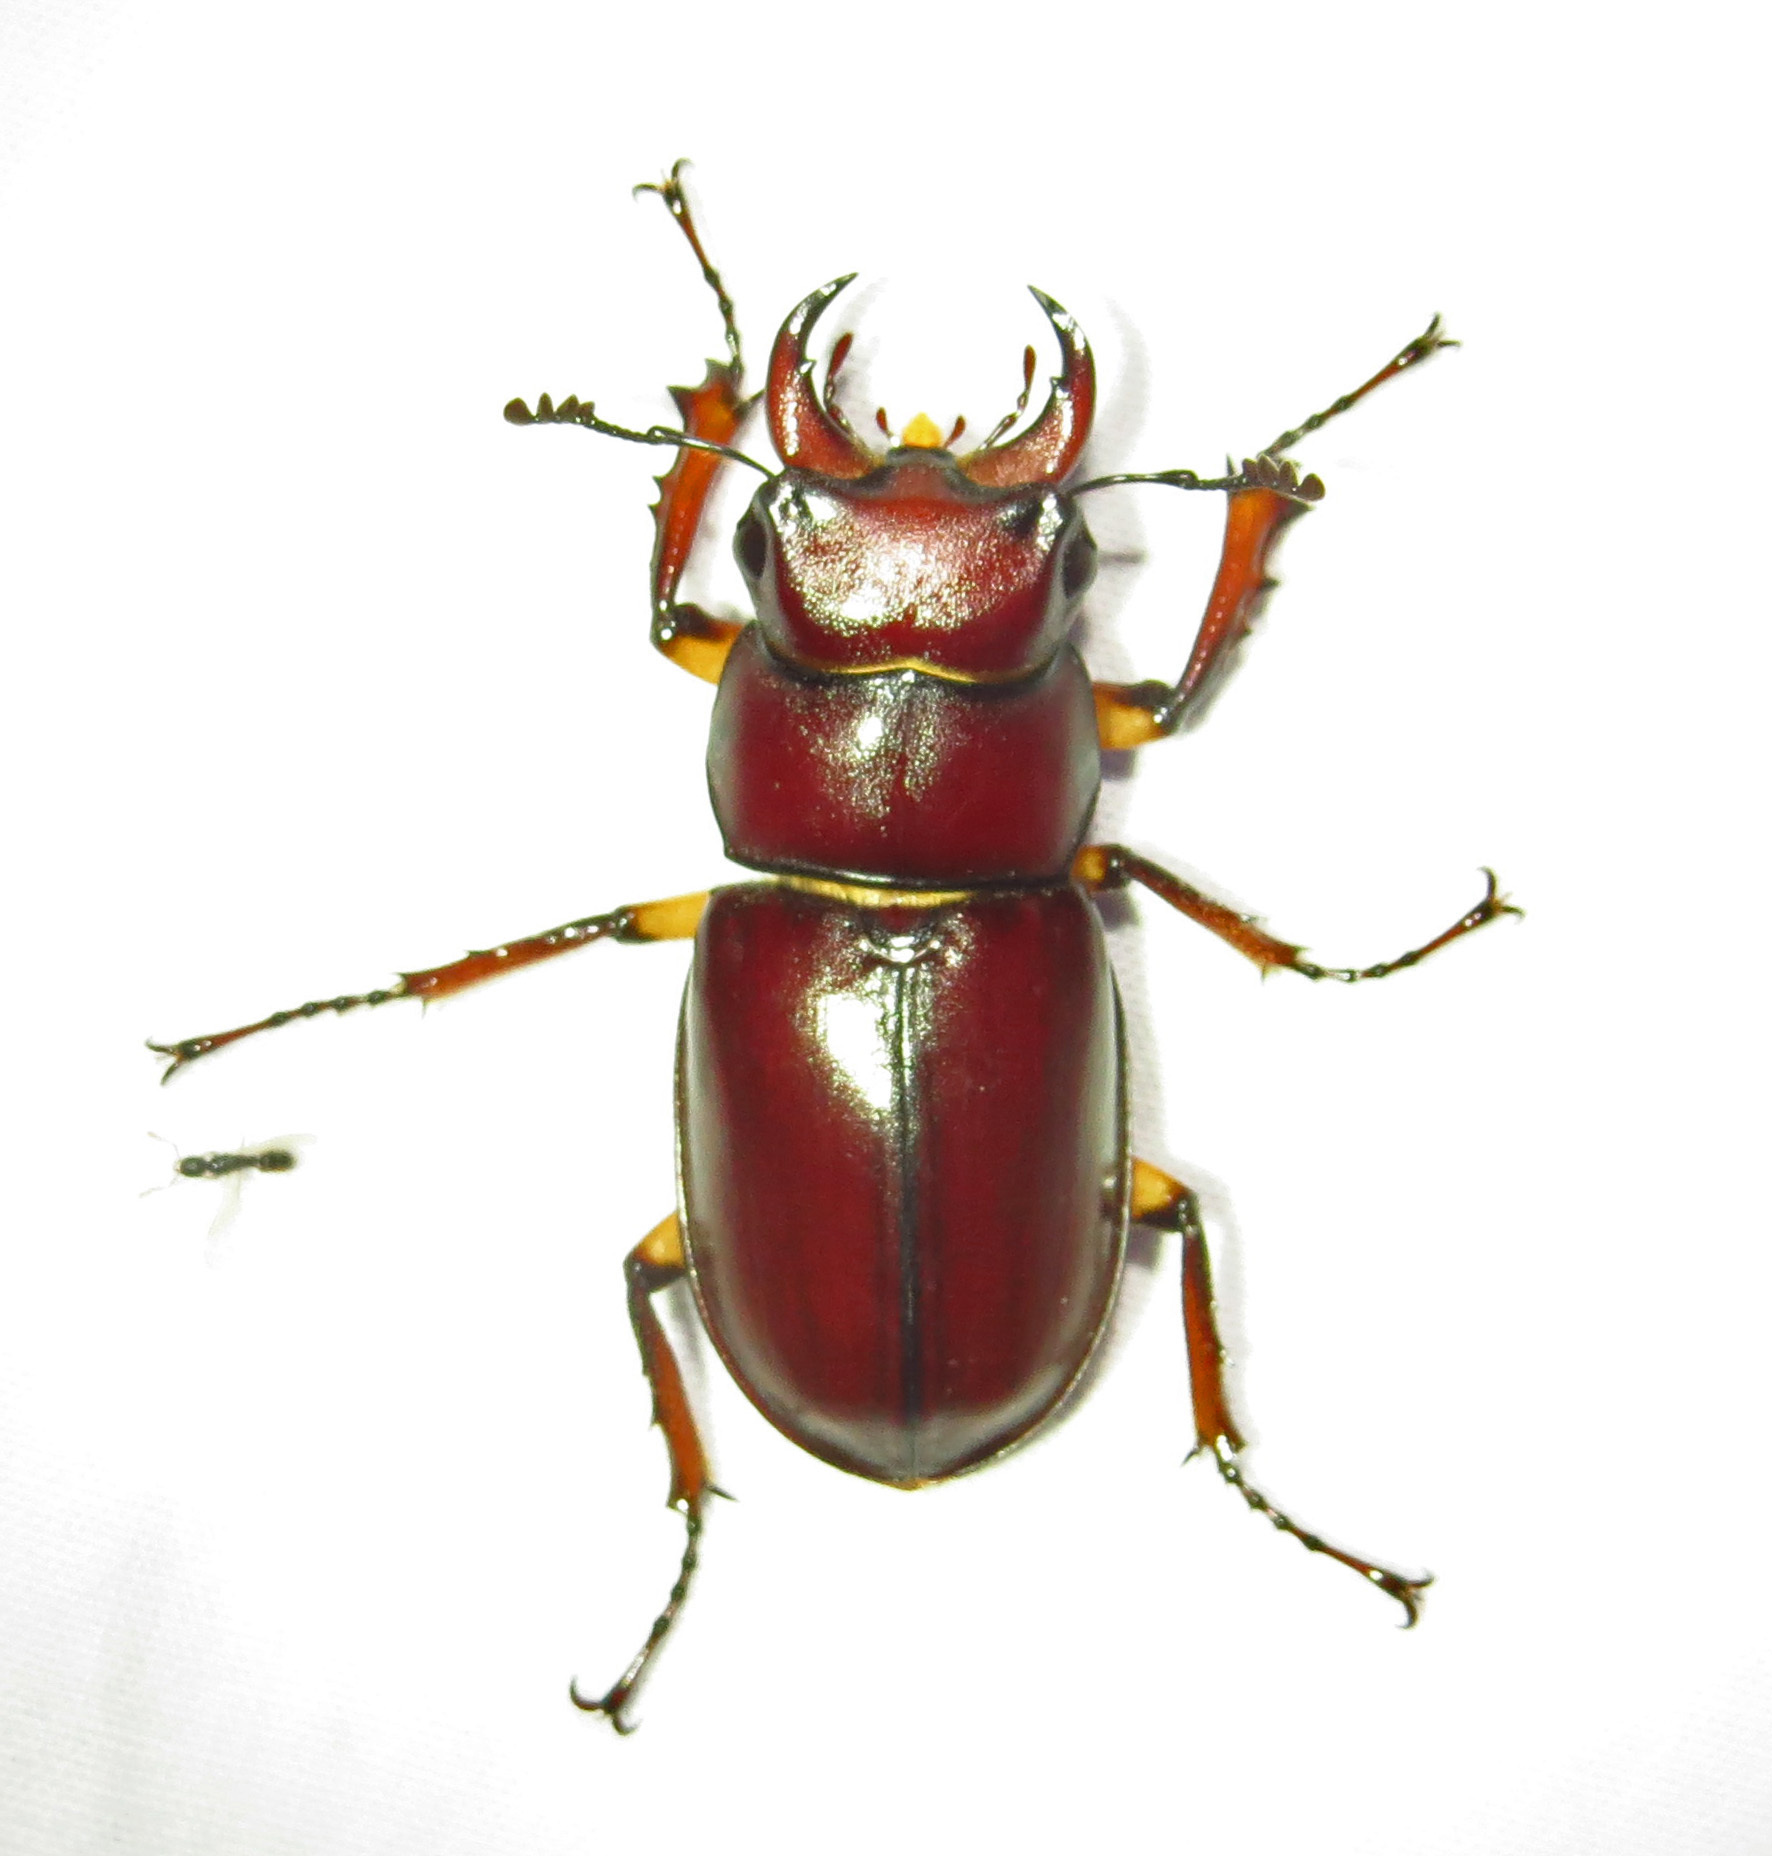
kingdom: Animalia
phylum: Arthropoda
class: Insecta
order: Coleoptera
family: Lucanidae
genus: Lucanus
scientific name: Lucanus capreolus
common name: Stag beetle
